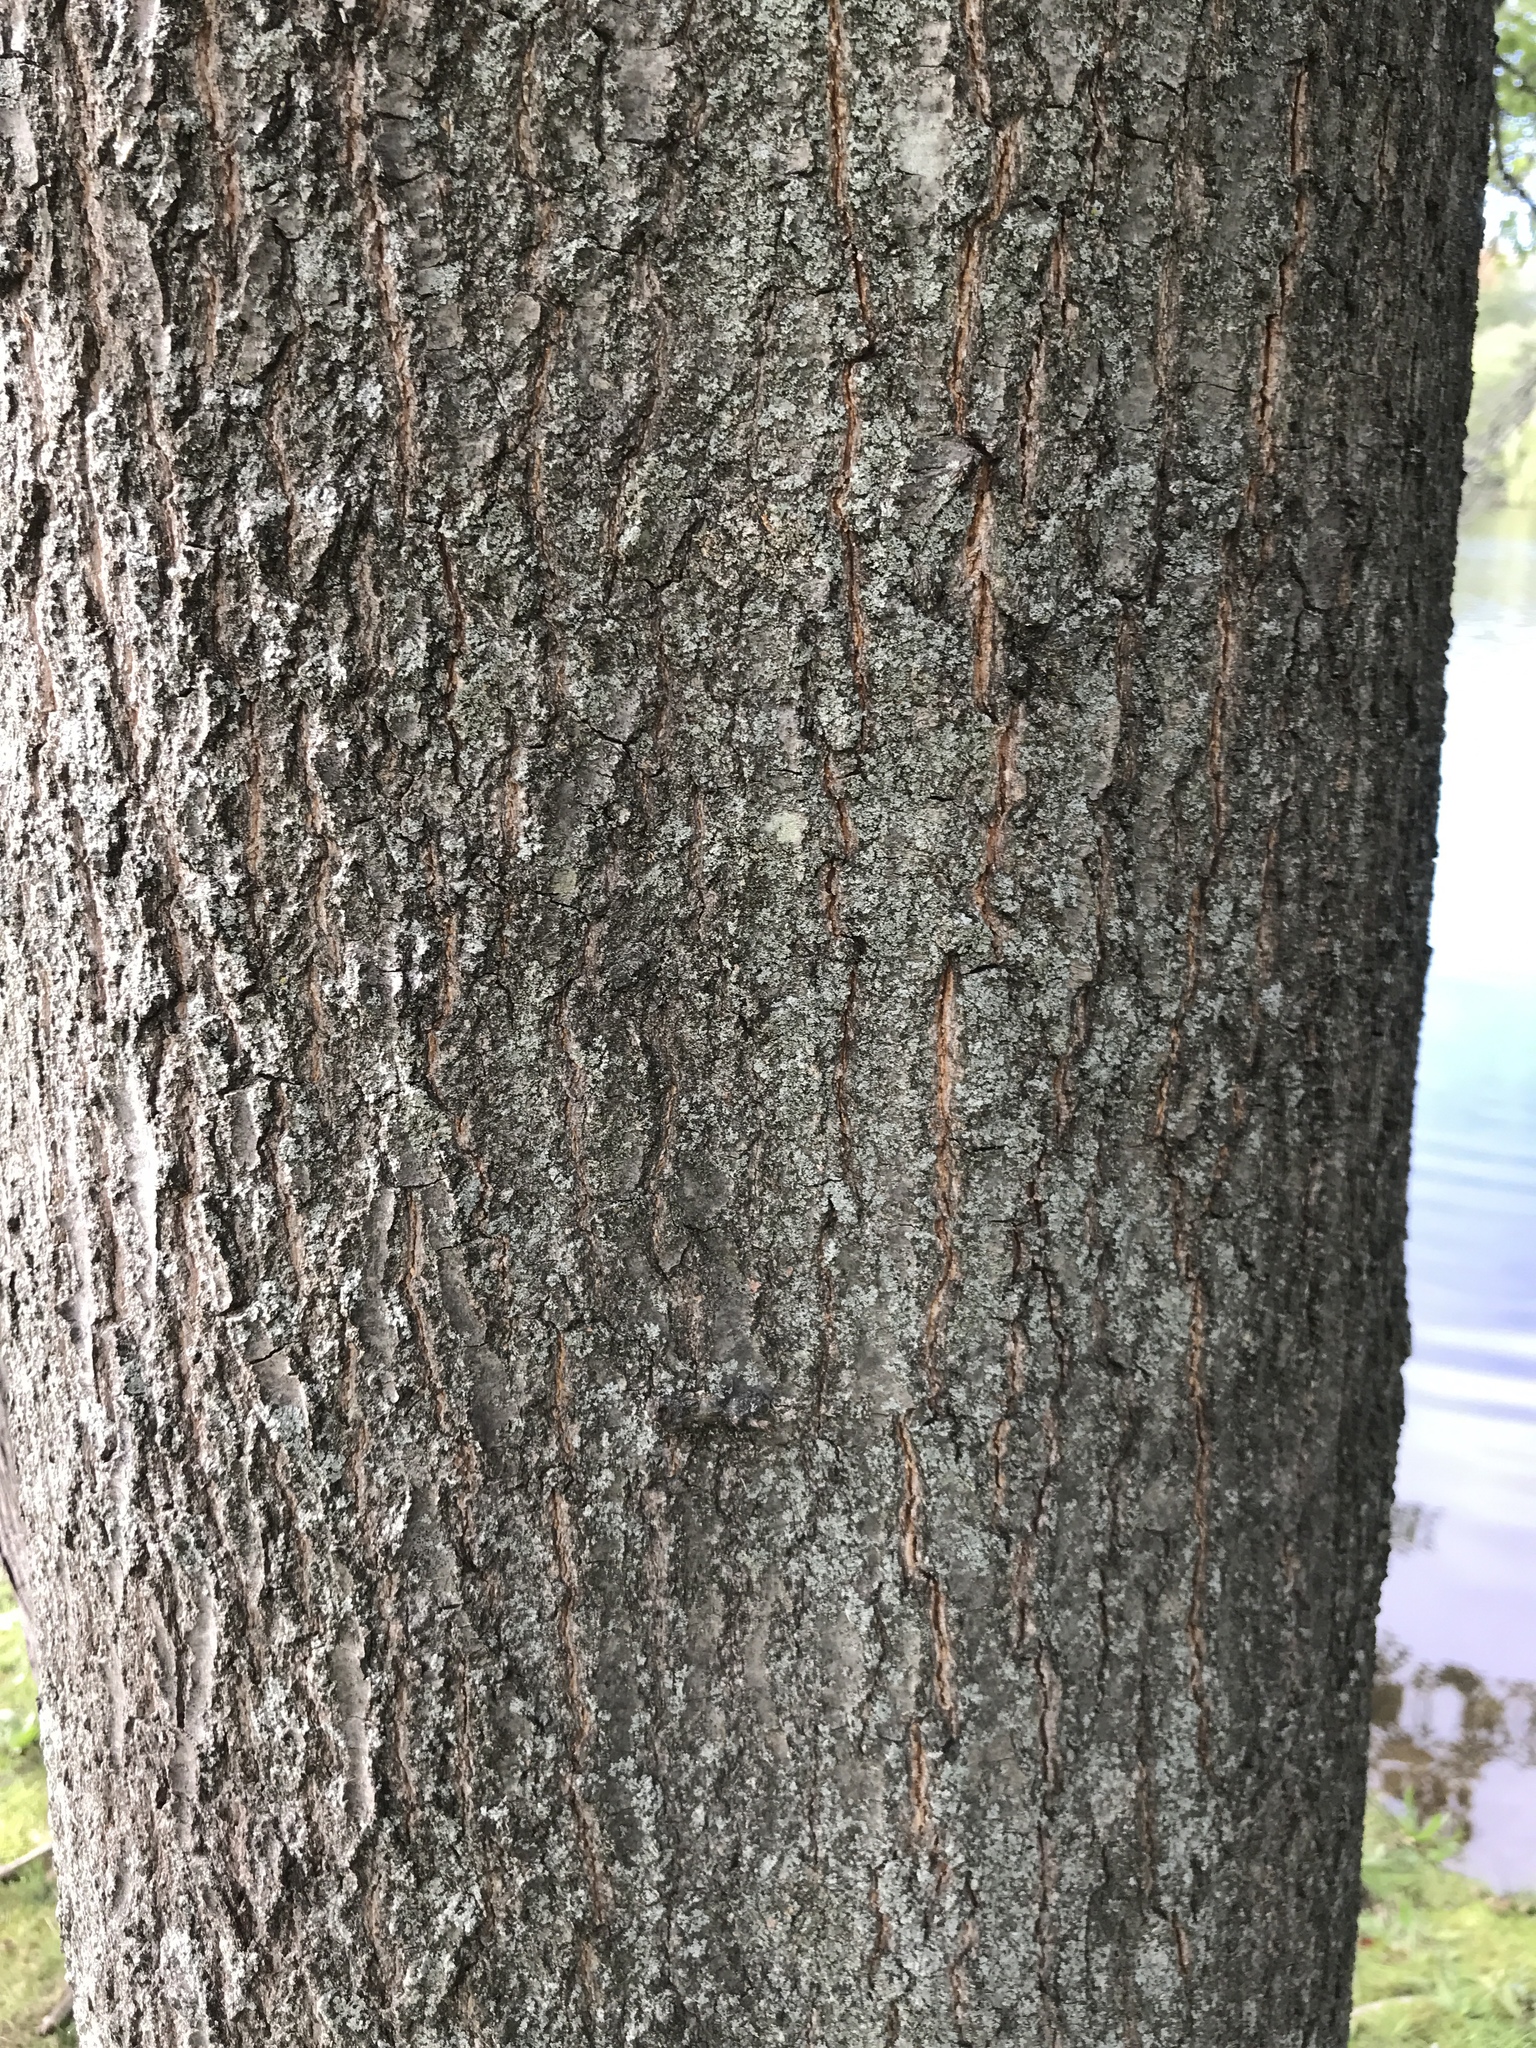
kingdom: Plantae
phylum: Tracheophyta
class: Magnoliopsida
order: Fagales
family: Fagaceae
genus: Quercus
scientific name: Quercus palustris
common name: Pin oak
